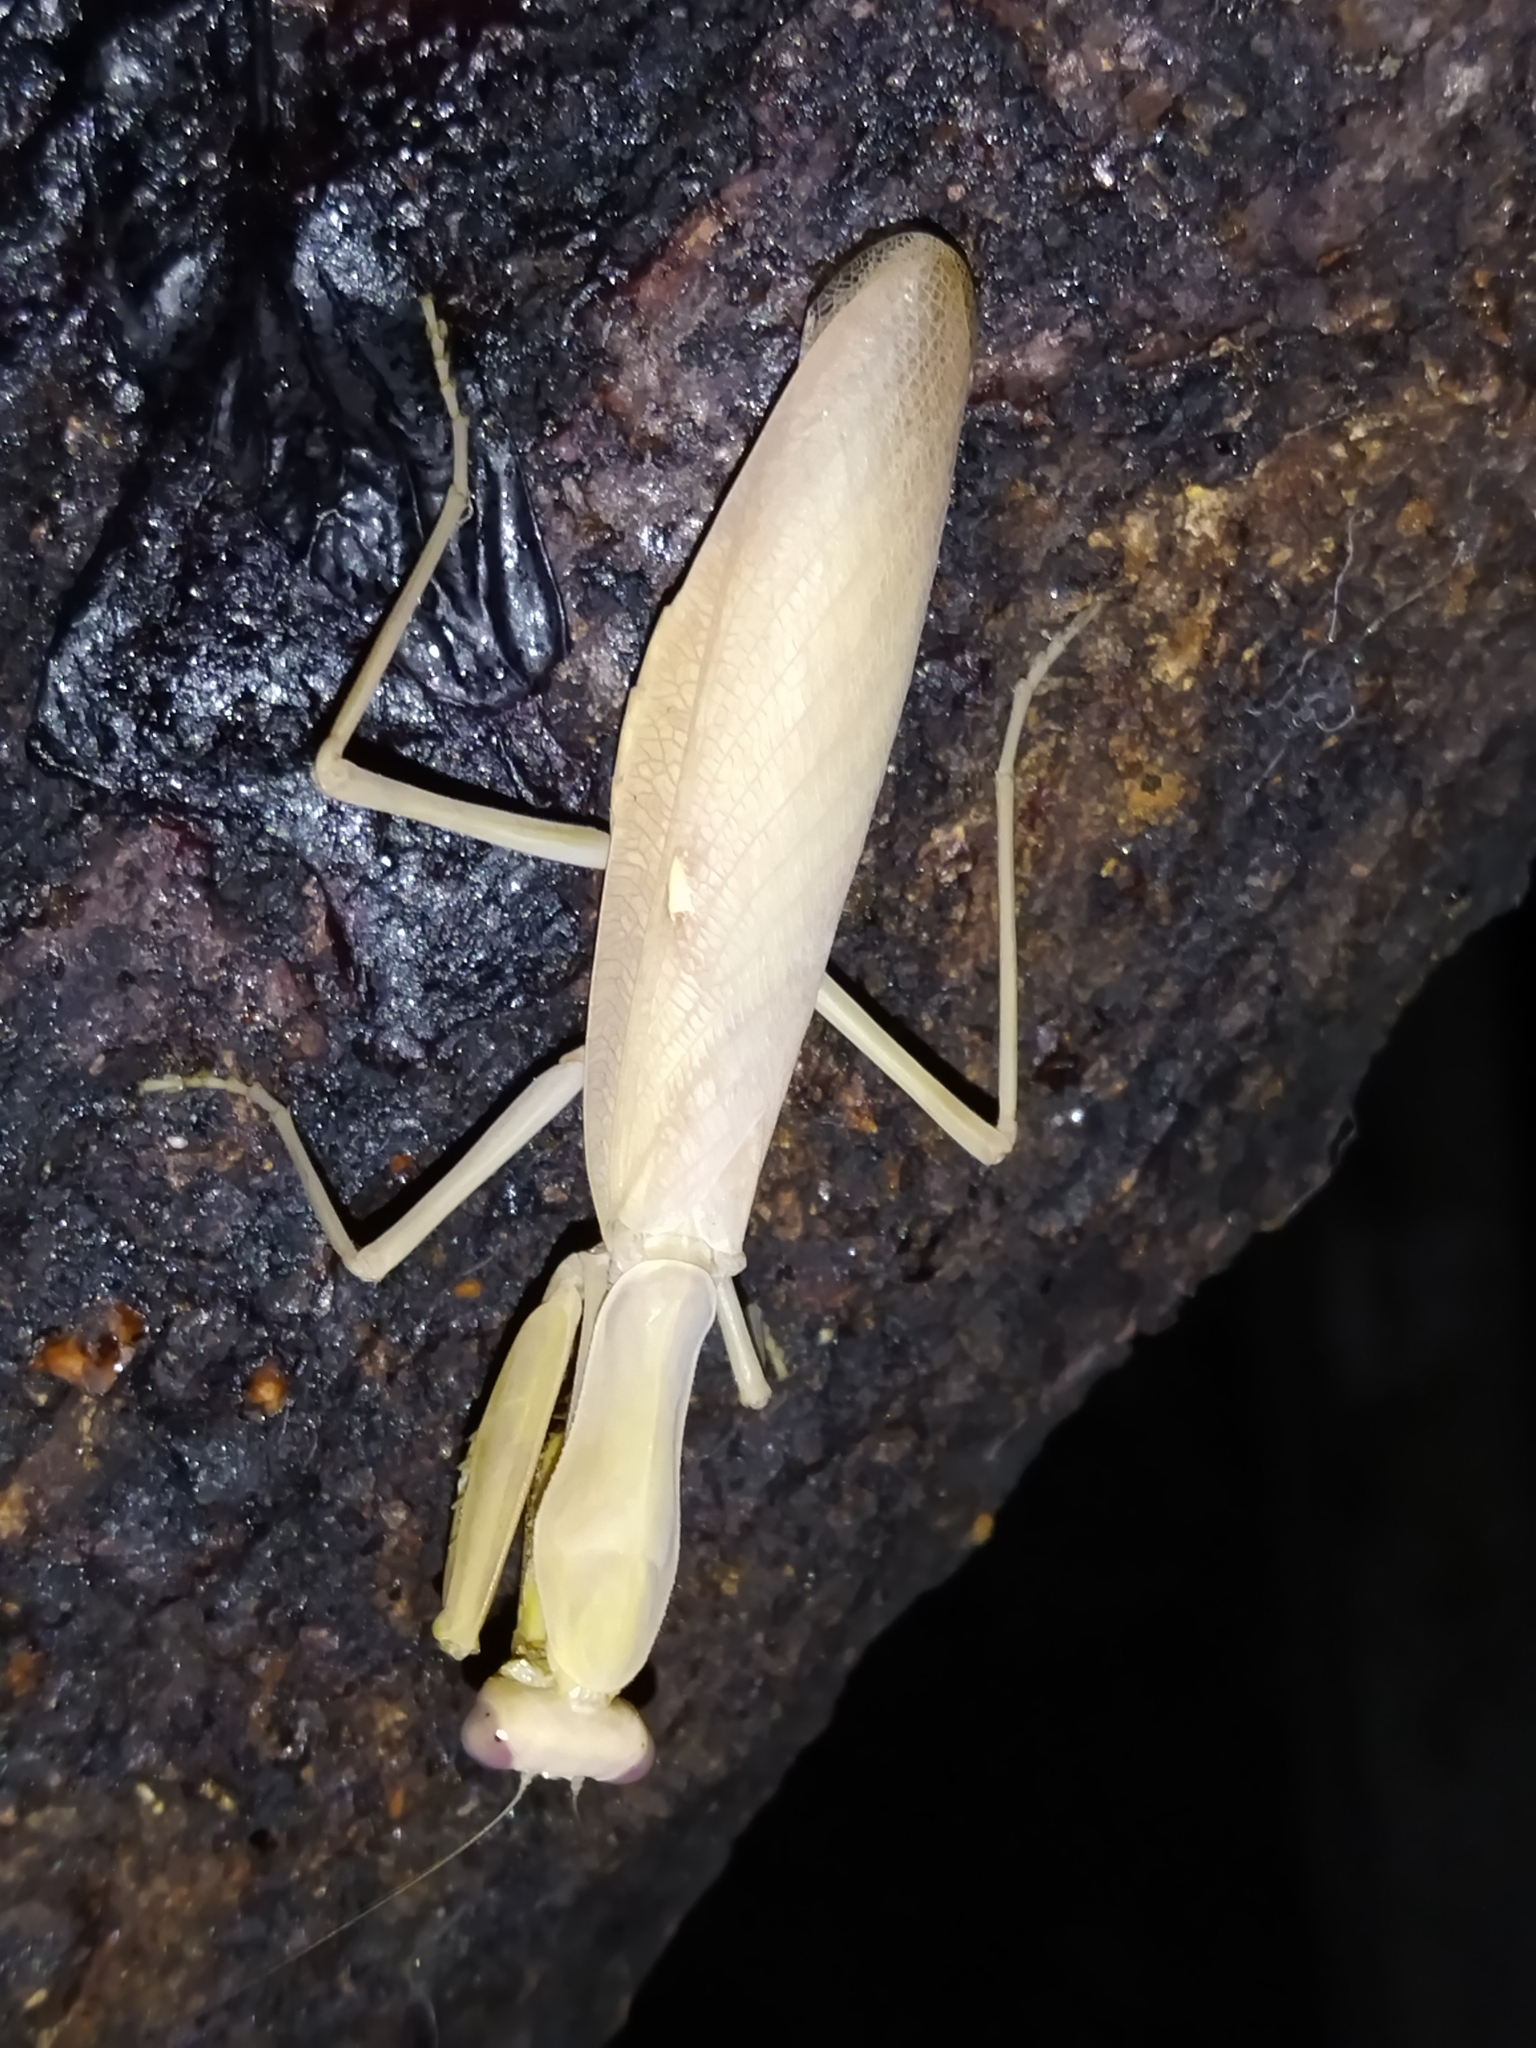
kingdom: Animalia
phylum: Arthropoda
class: Insecta
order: Mantodea
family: Mantidae
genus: Hierodula
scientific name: Hierodula transcaucasica
